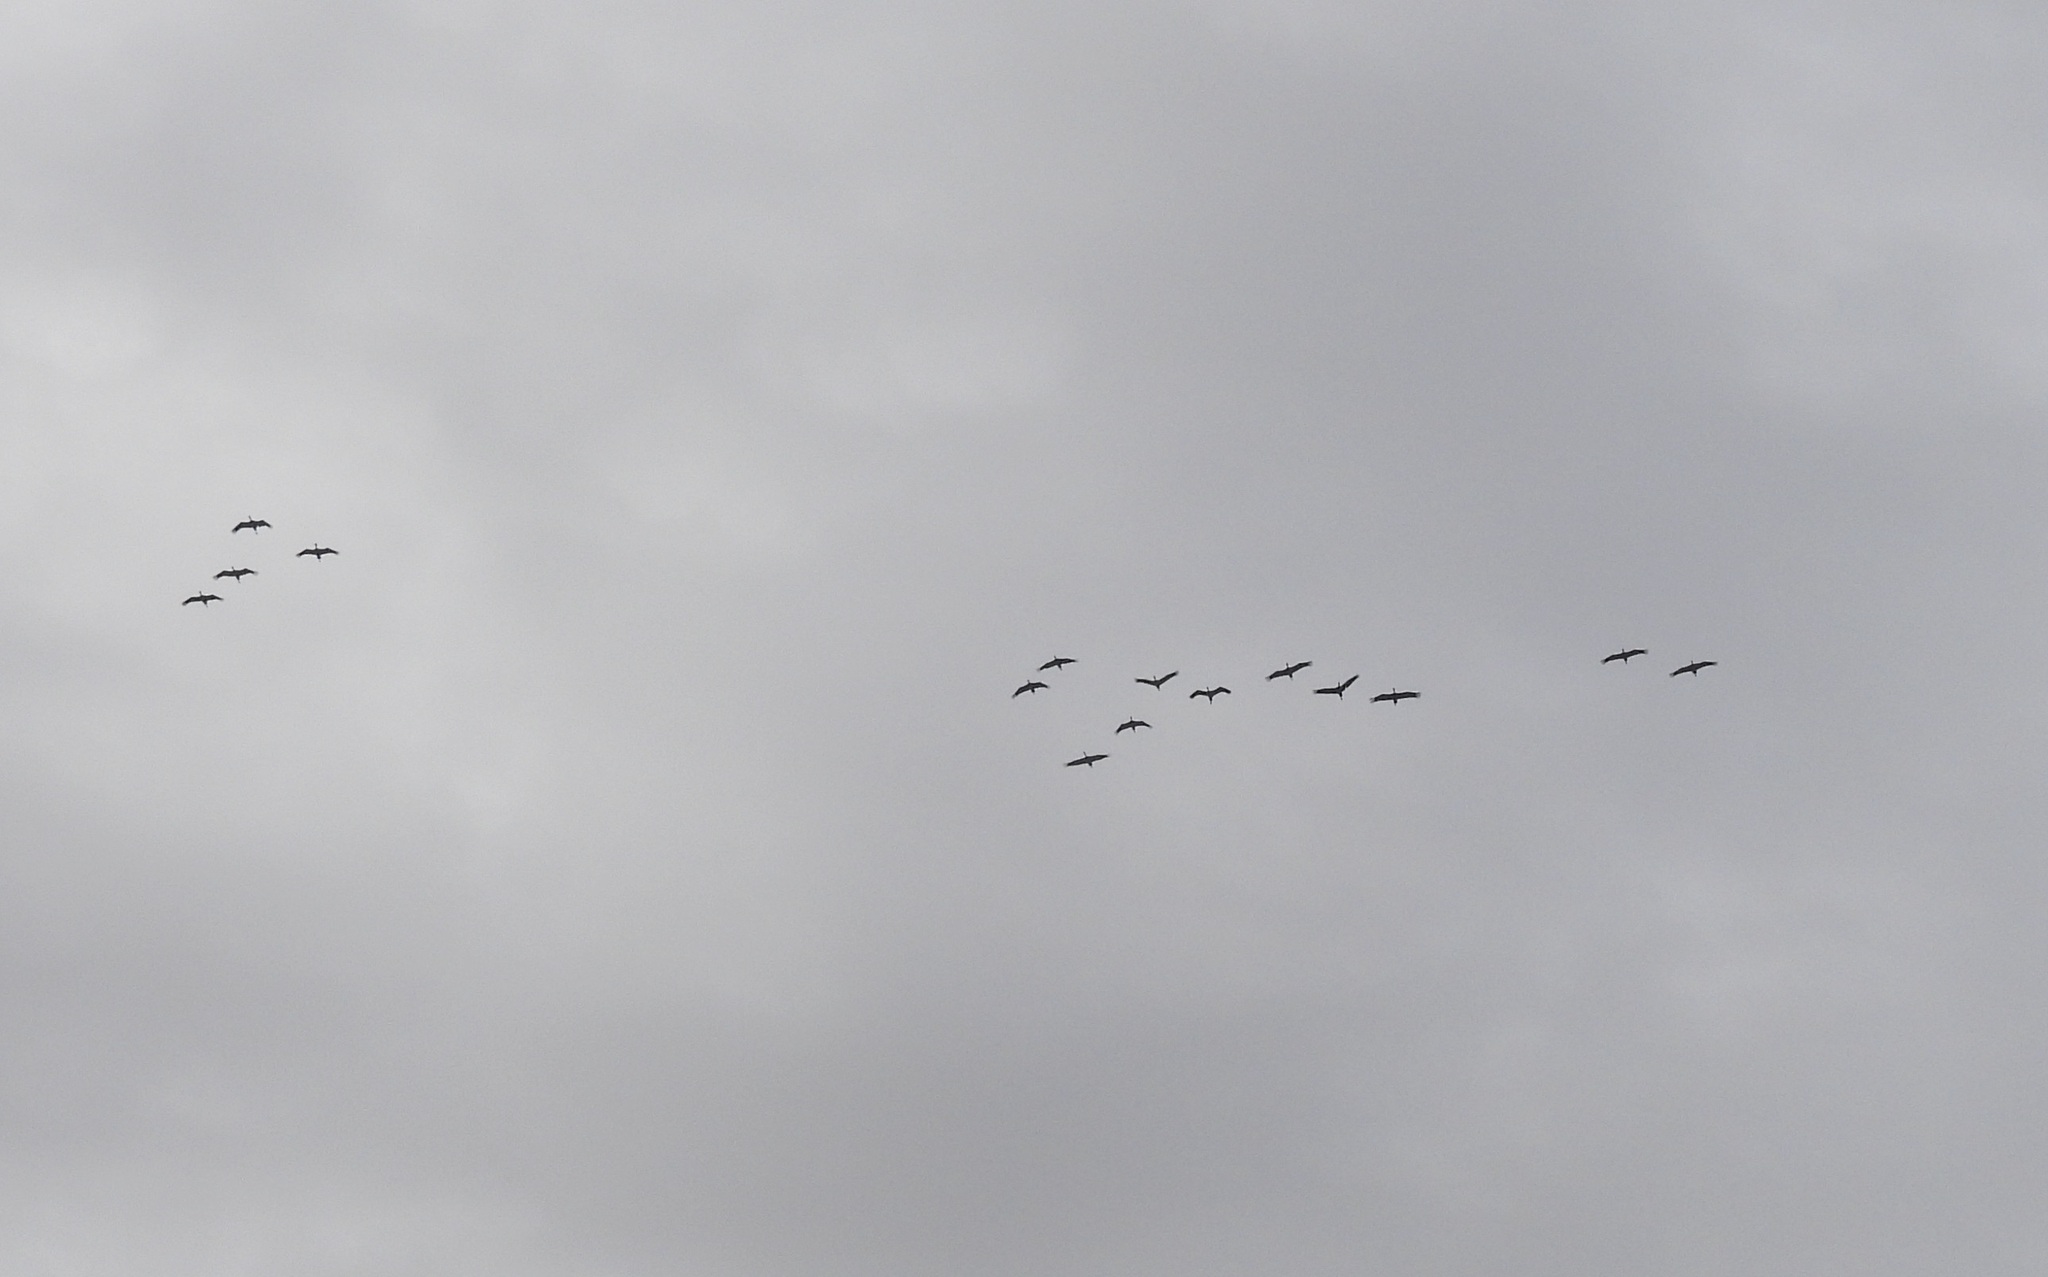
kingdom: Animalia
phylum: Chordata
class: Aves
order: Gruiformes
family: Gruidae
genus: Grus
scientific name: Grus canadensis
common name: Sandhill crane
